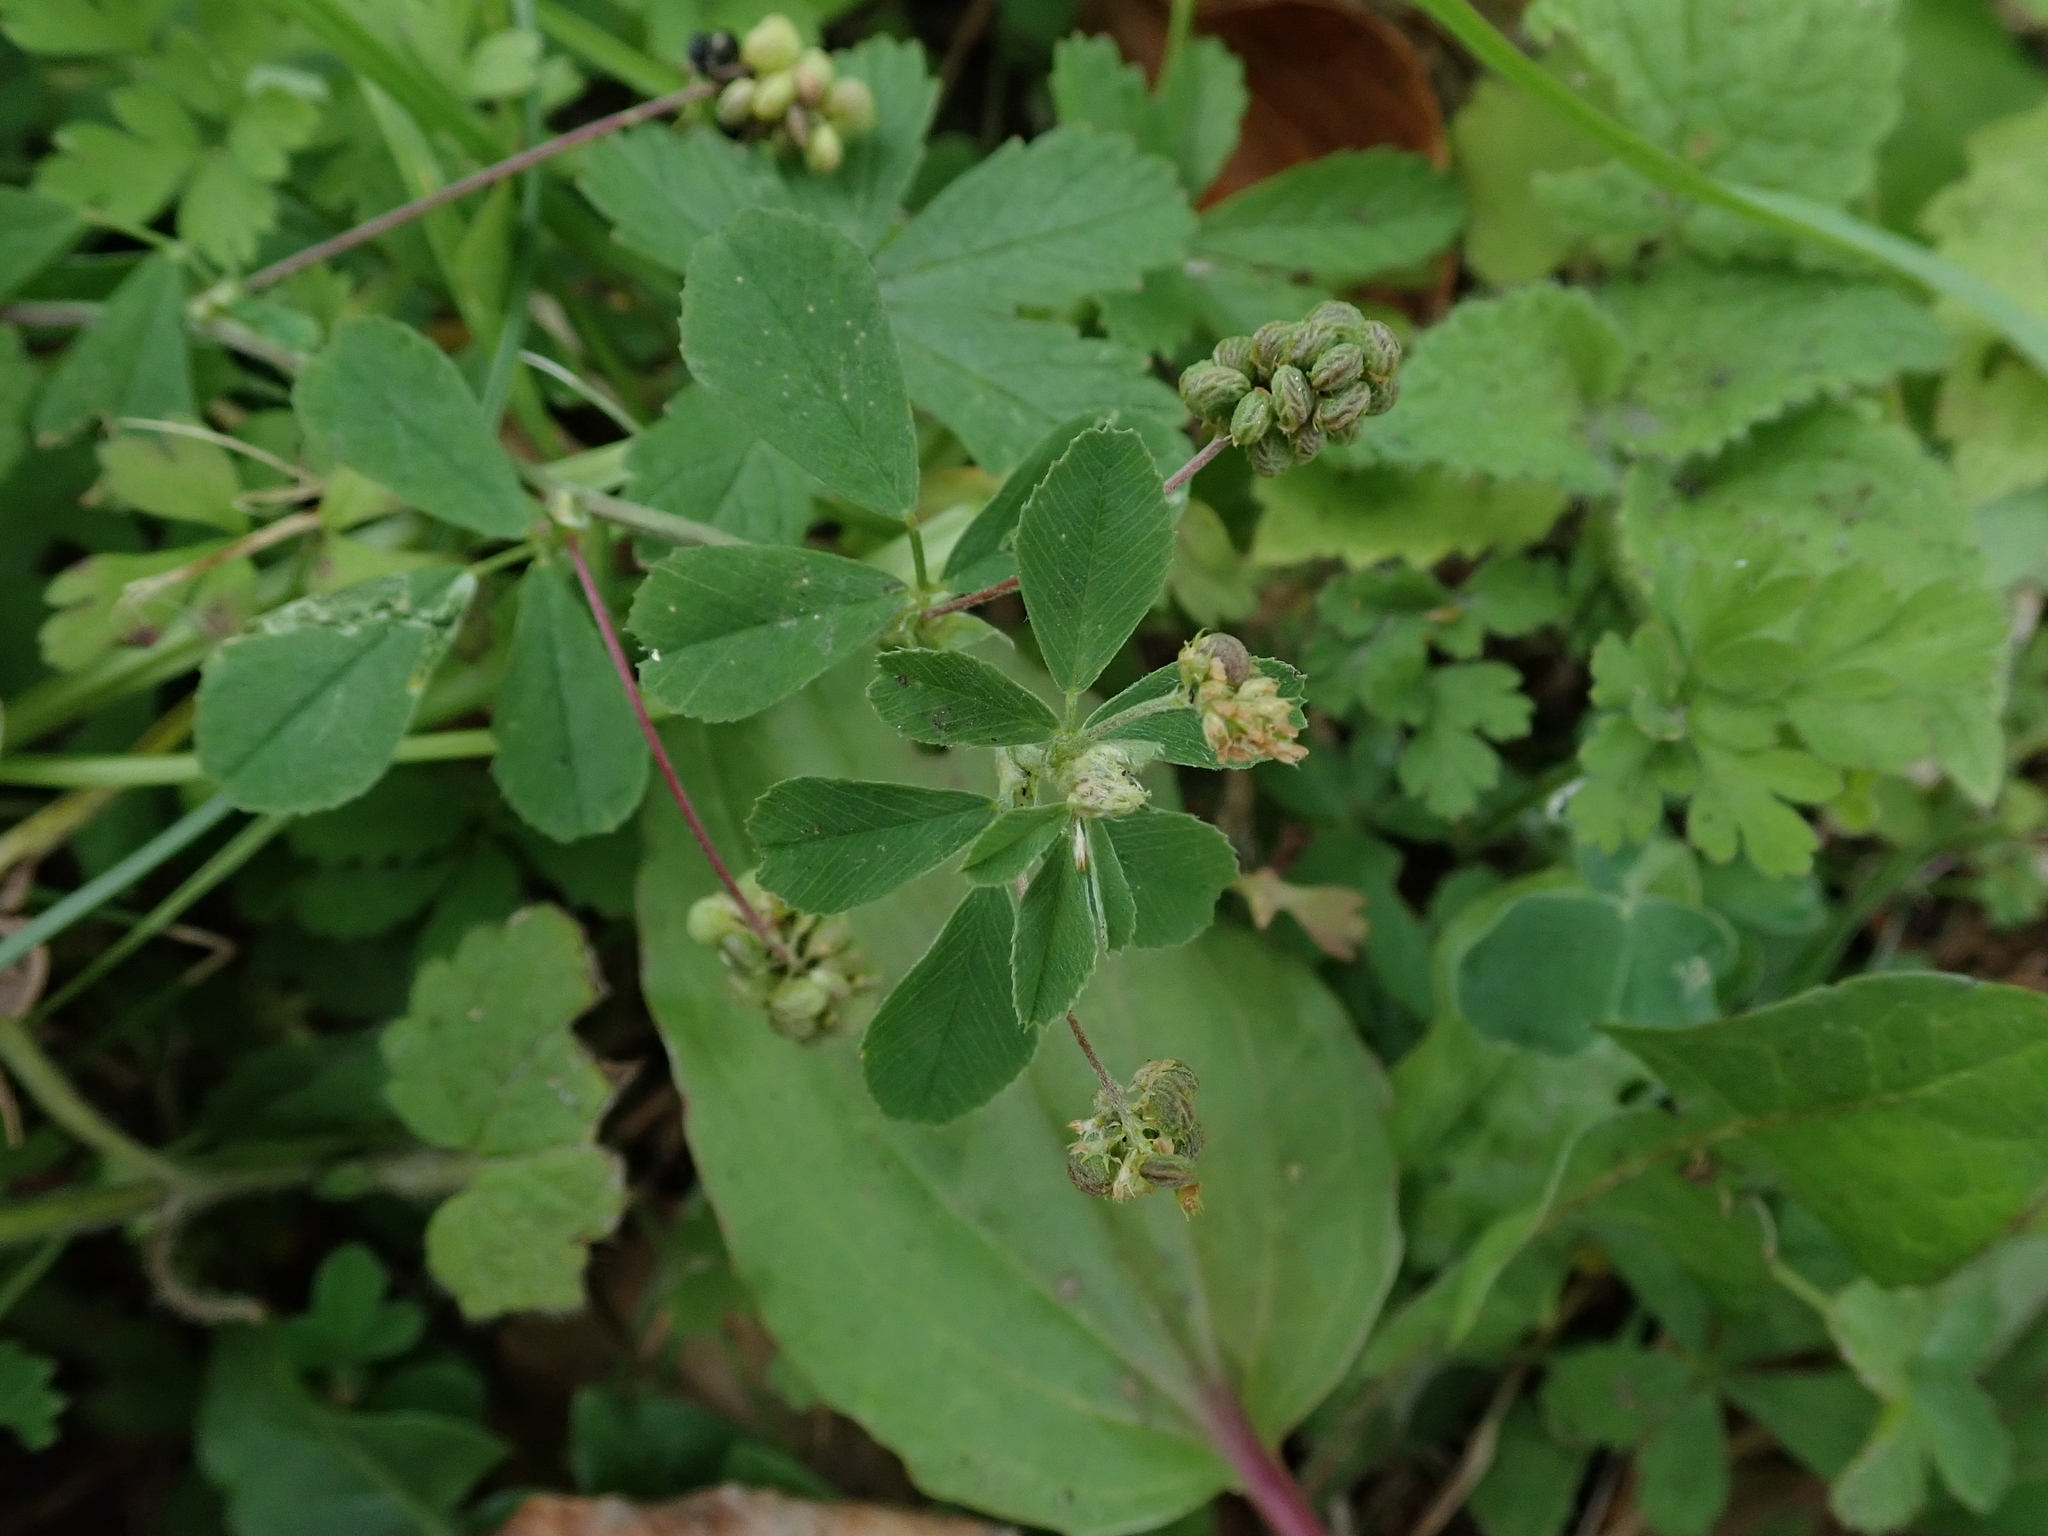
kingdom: Plantae
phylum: Tracheophyta
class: Magnoliopsida
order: Fabales
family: Fabaceae
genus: Medicago
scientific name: Medicago lupulina
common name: Black medick
